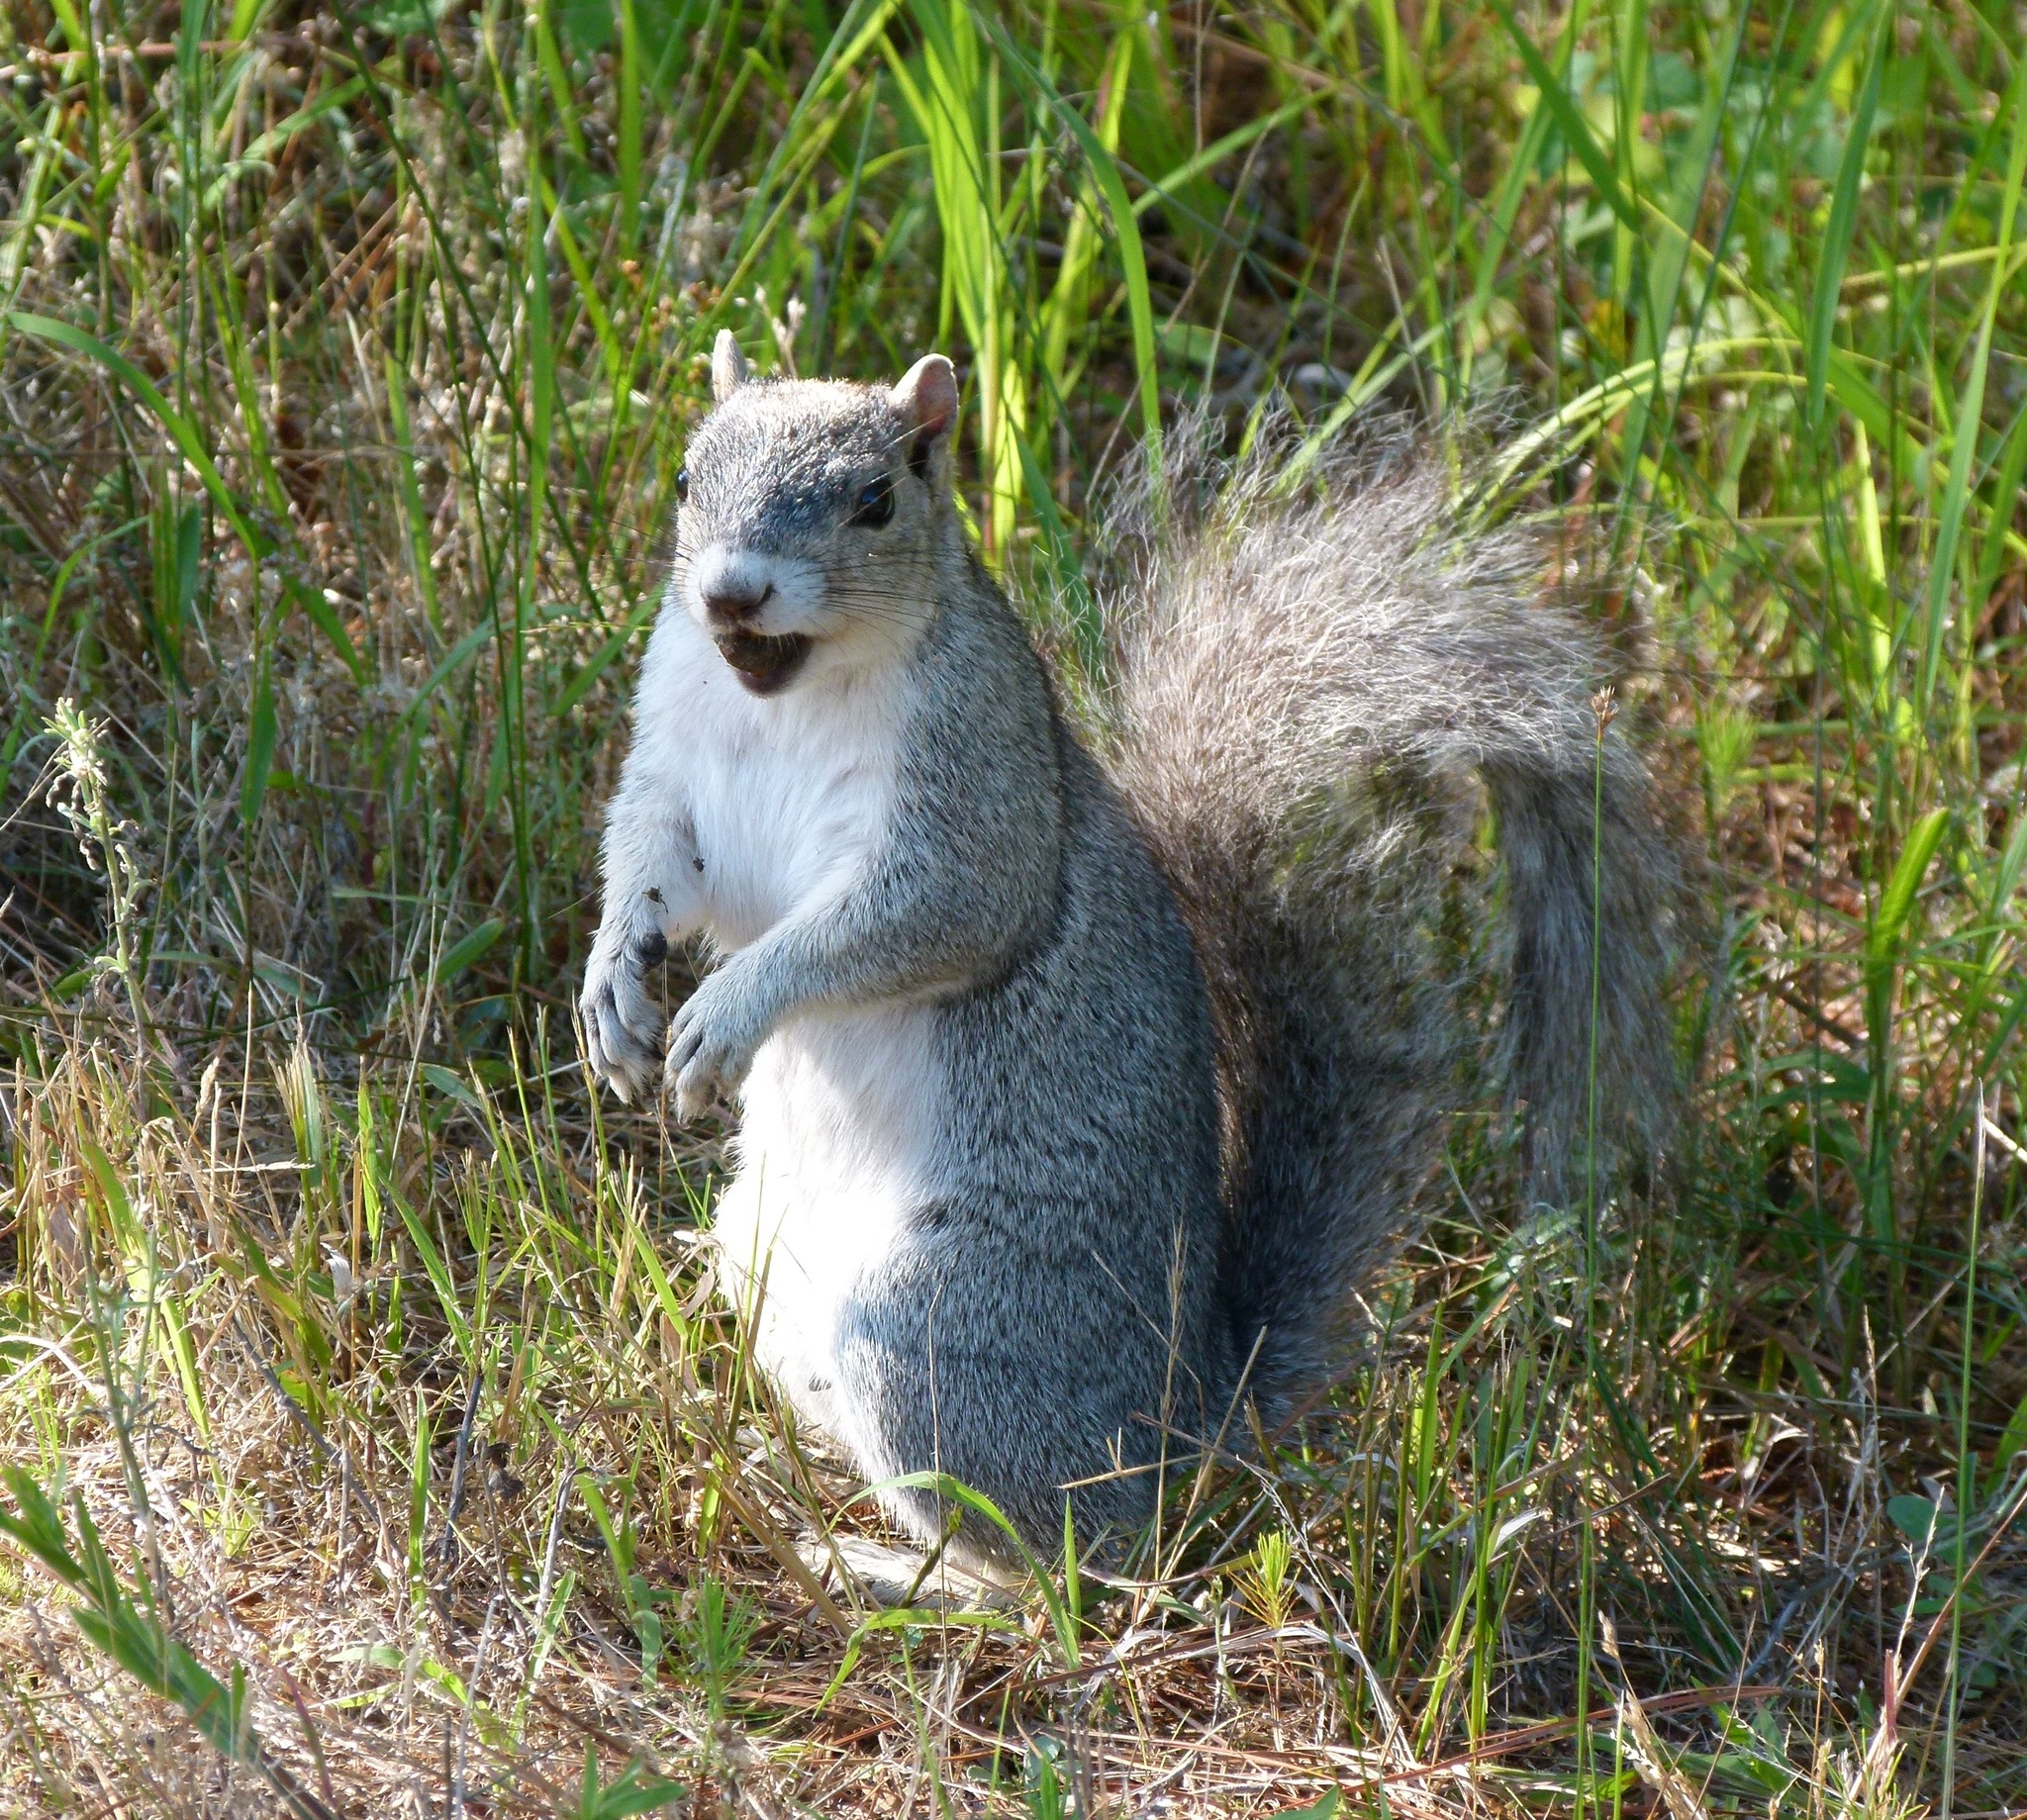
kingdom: Animalia
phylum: Chordata
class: Mammalia
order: Rodentia
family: Sciuridae
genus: Sciurus
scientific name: Sciurus niger
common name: Fox squirrel
